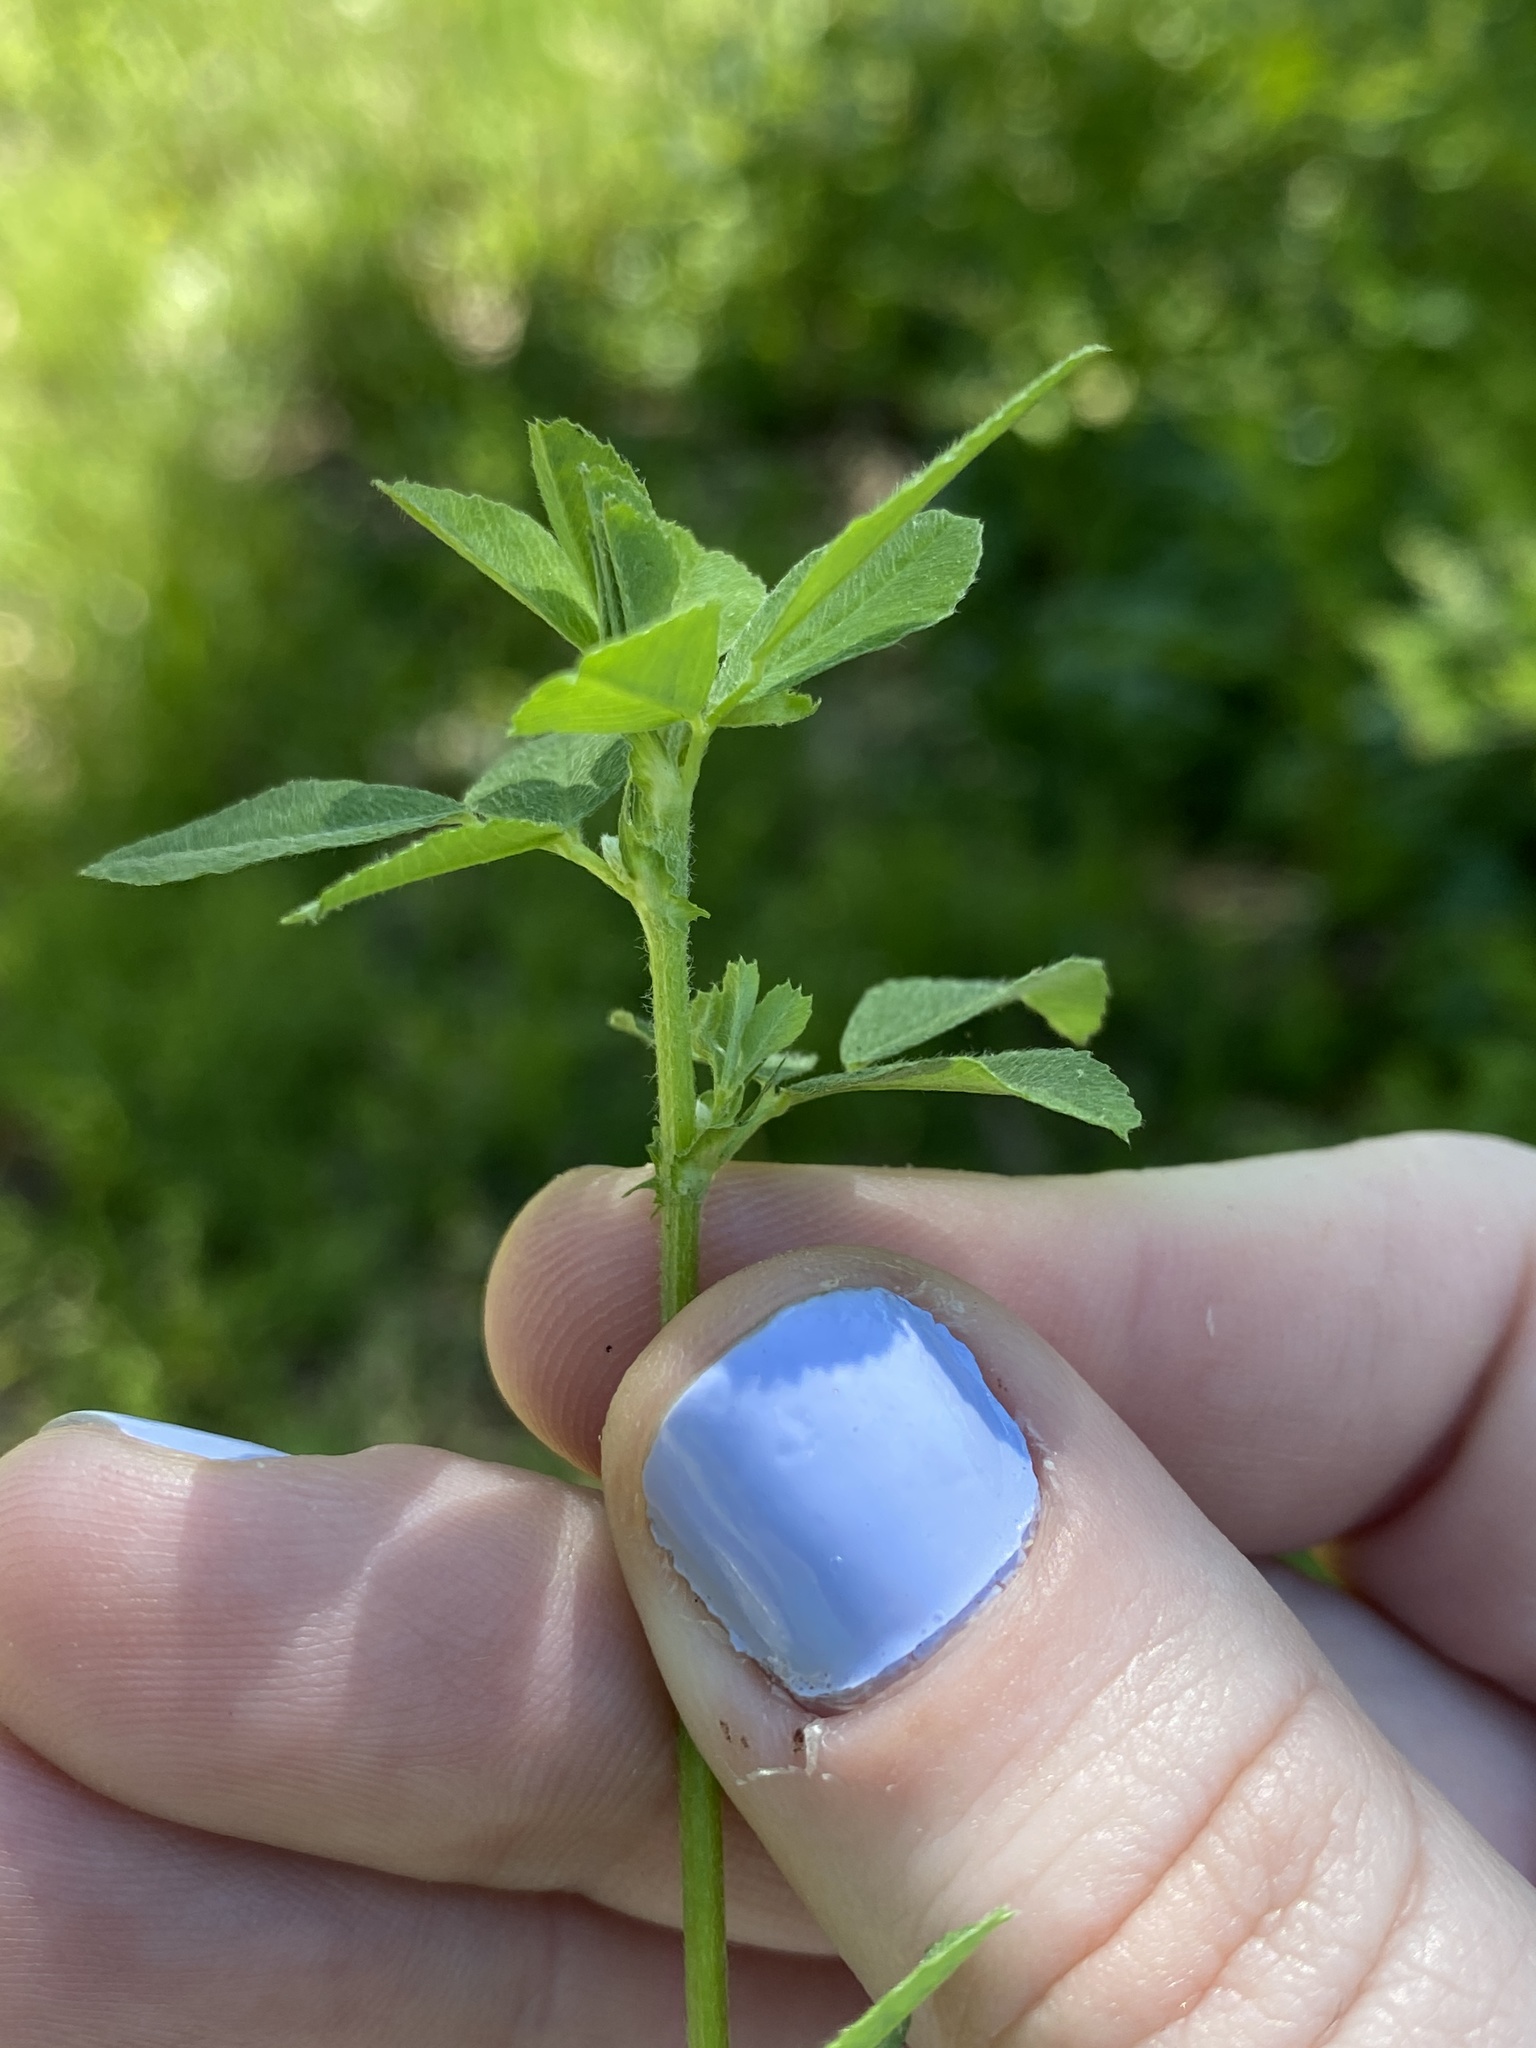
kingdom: Plantae
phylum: Tracheophyta
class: Magnoliopsida
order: Fabales
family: Fabaceae
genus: Medicago
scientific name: Medicago lupulina
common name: Black medick
